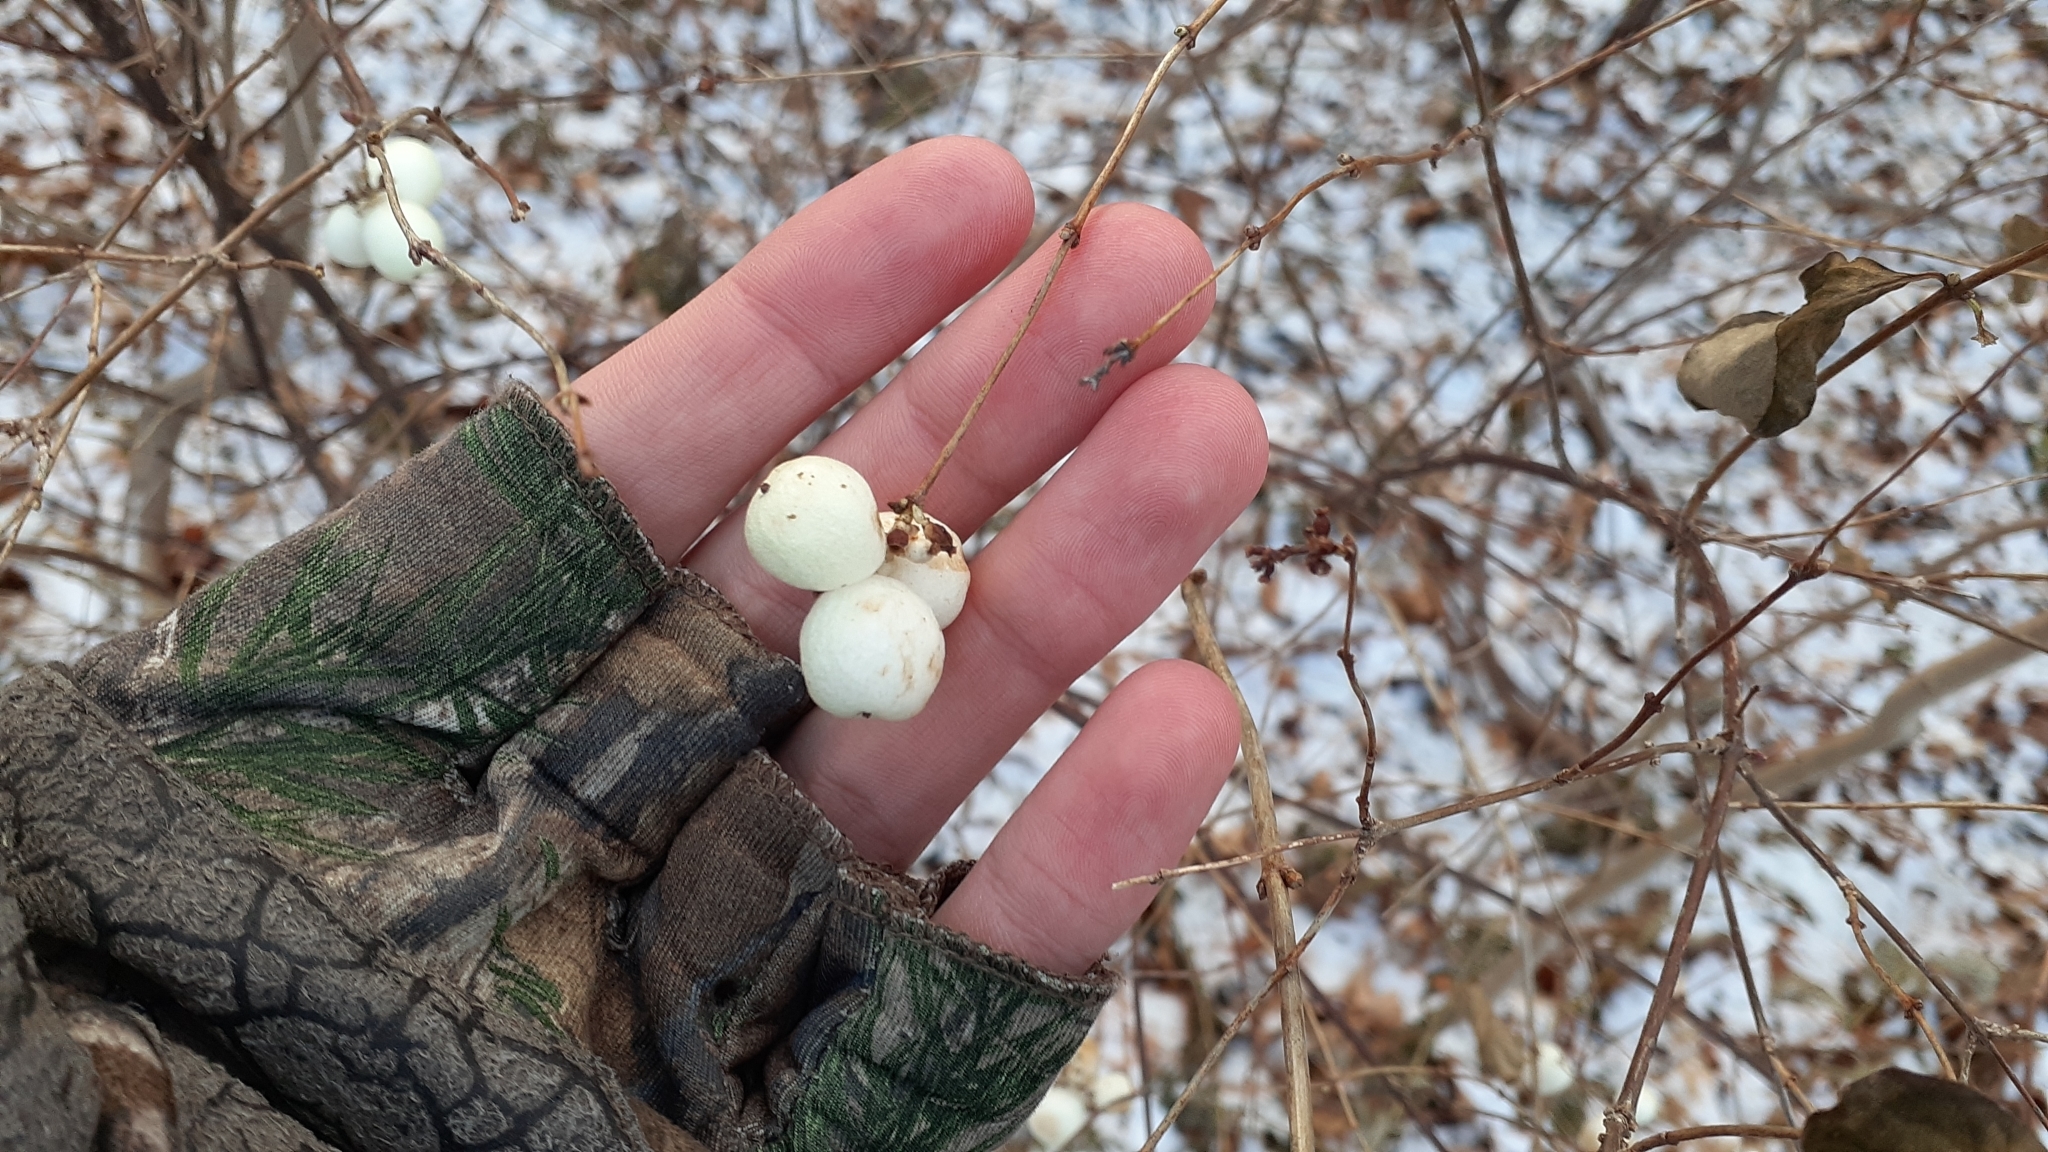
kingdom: Plantae
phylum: Tracheophyta
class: Magnoliopsida
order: Dipsacales
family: Caprifoliaceae
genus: Symphoricarpos
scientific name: Symphoricarpos albus
